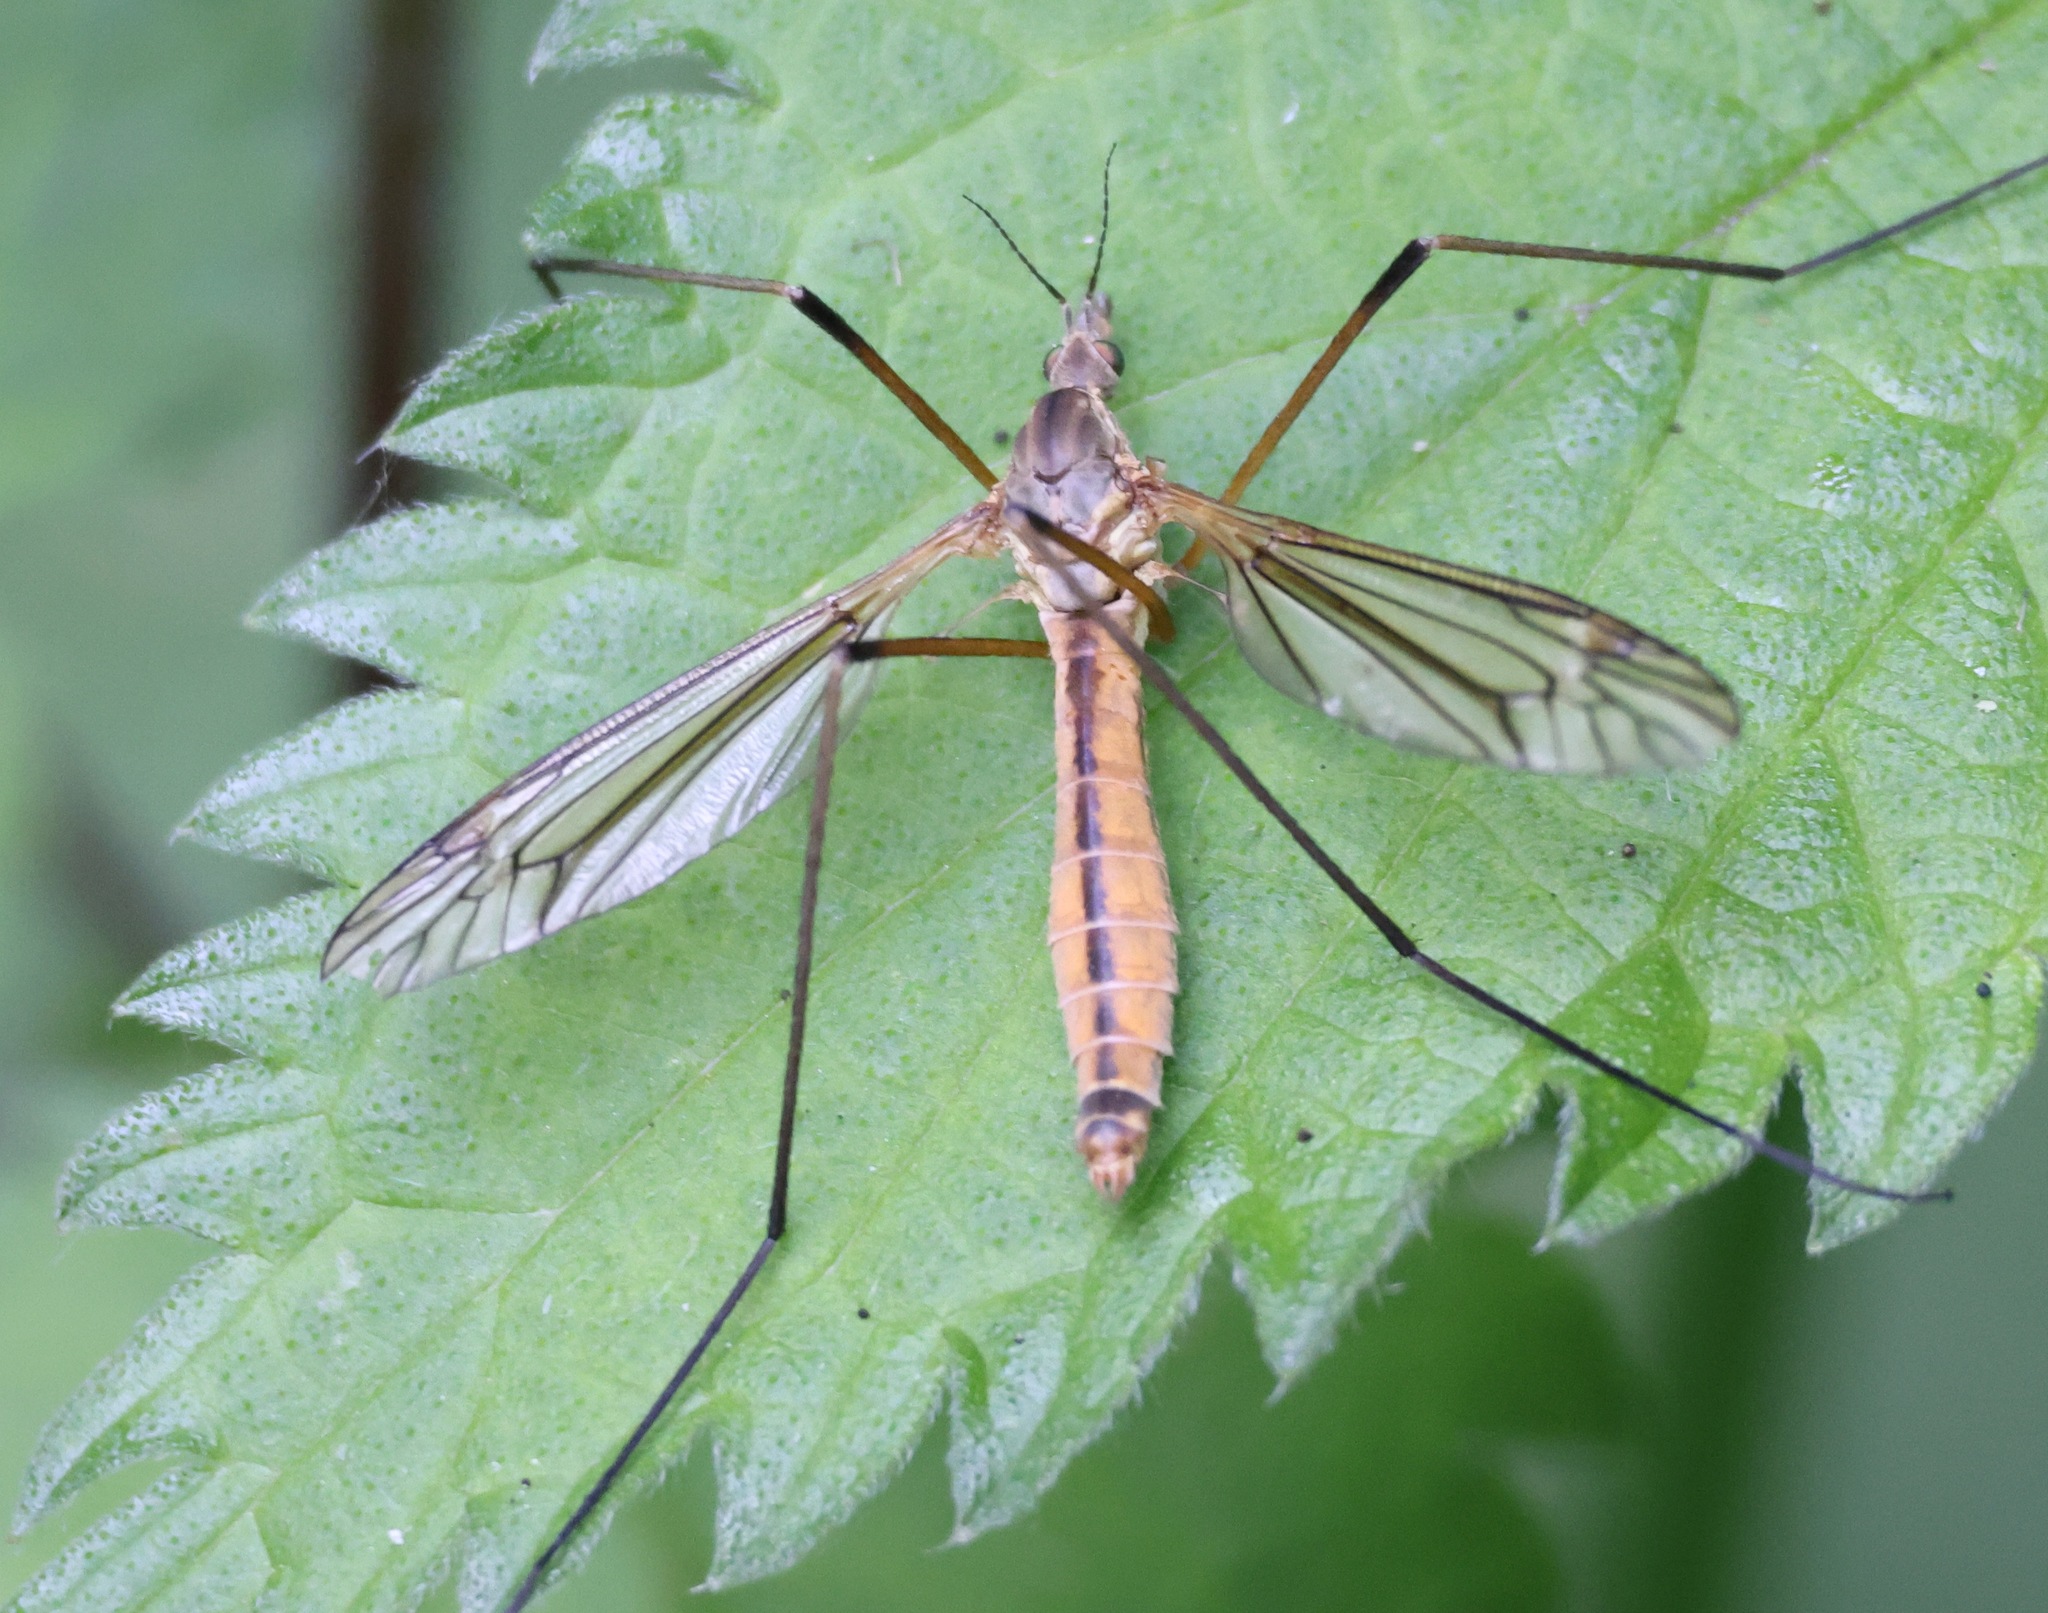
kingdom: Animalia
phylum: Arthropoda
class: Insecta
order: Diptera
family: Tipulidae
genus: Tipula
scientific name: Tipula vernalis
